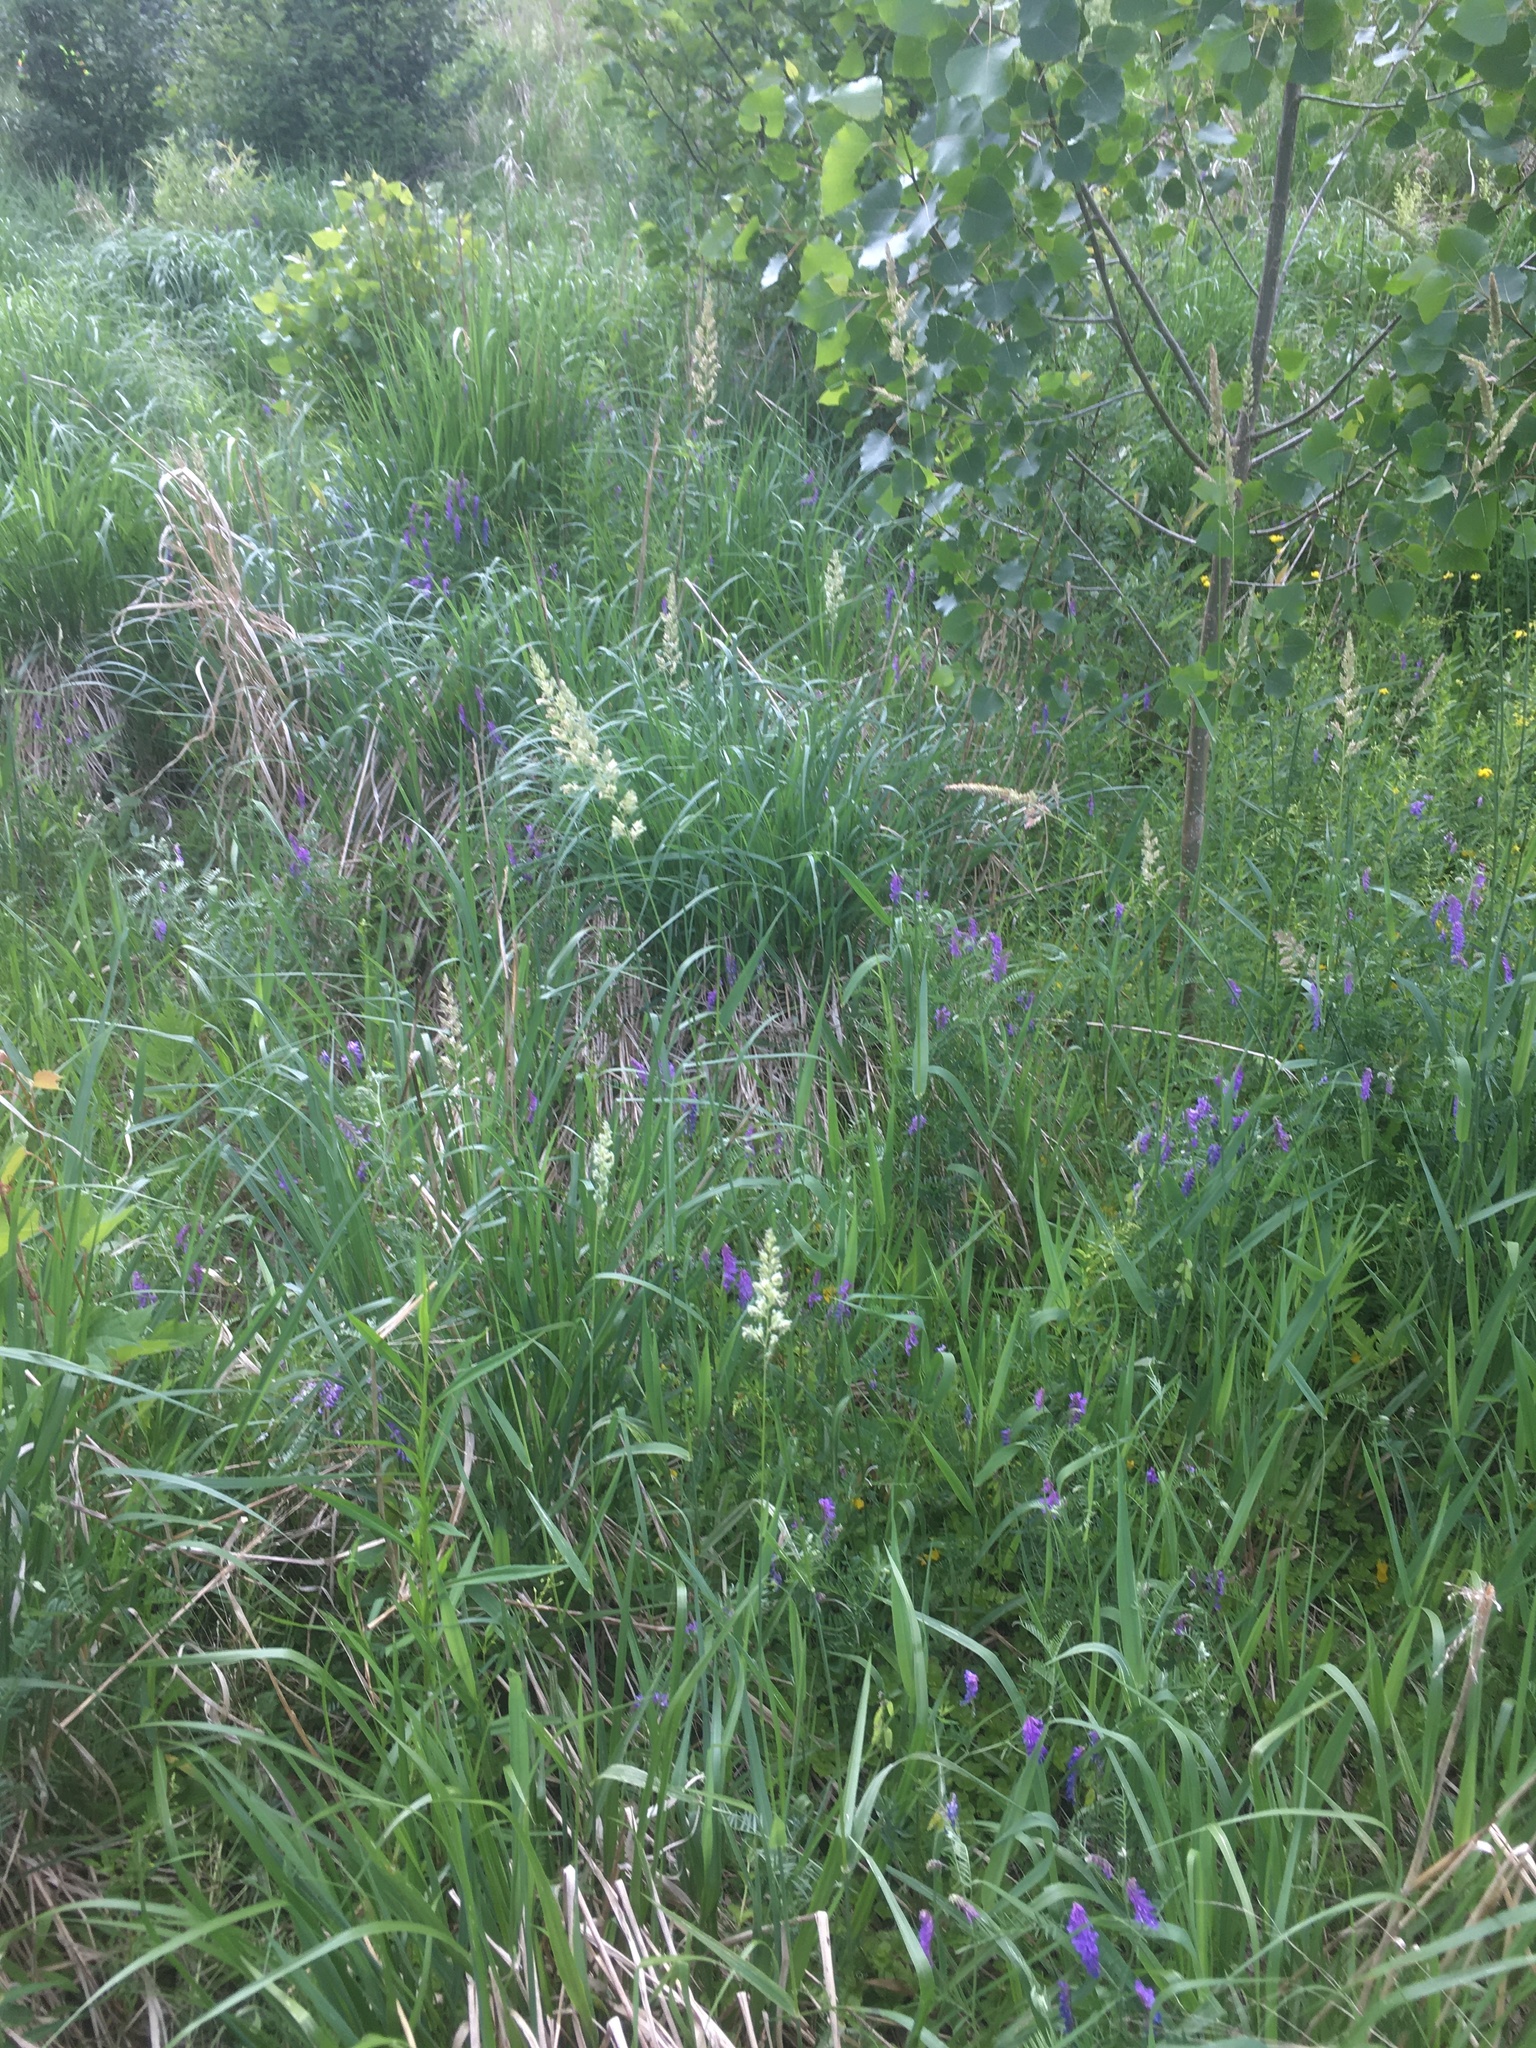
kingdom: Plantae
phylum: Tracheophyta
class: Liliopsida
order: Poales
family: Poaceae
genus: Phalaris
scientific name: Phalaris arundinacea
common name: Reed canary-grass
